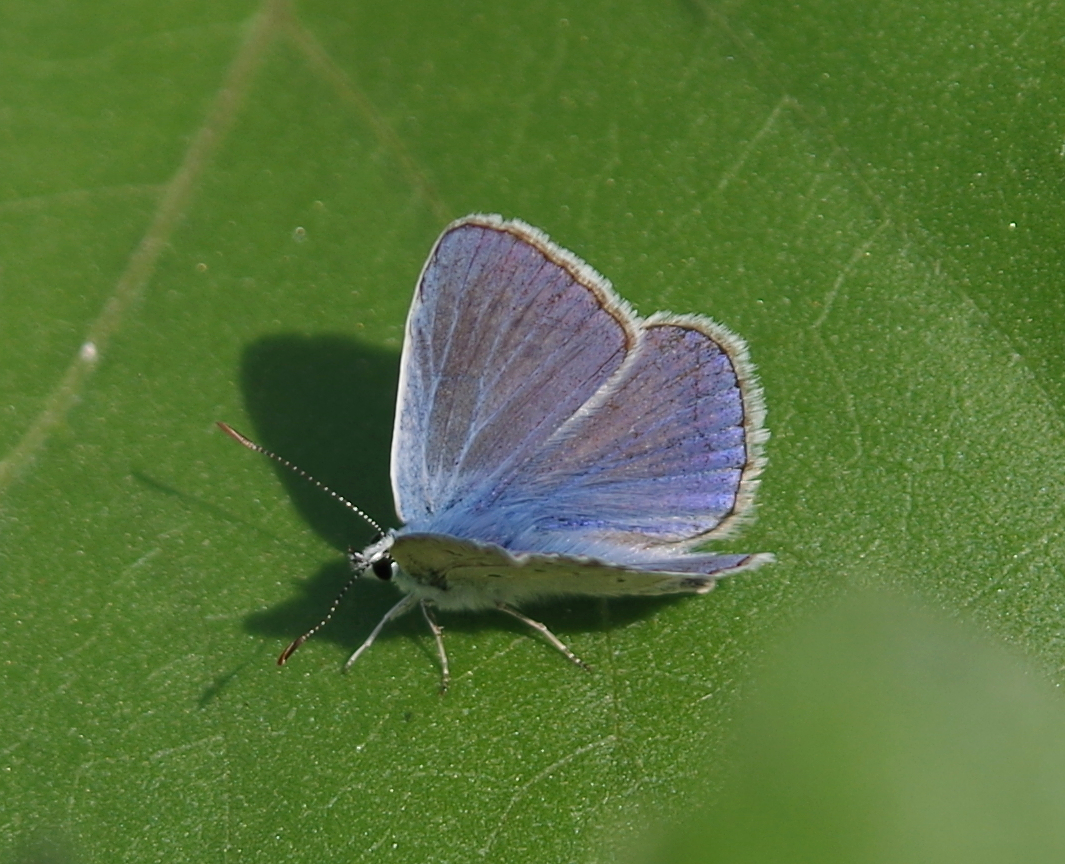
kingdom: Animalia
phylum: Arthropoda
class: Insecta
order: Lepidoptera
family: Lycaenidae
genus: Polyommatus
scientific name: Polyommatus icarus
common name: Common blue
